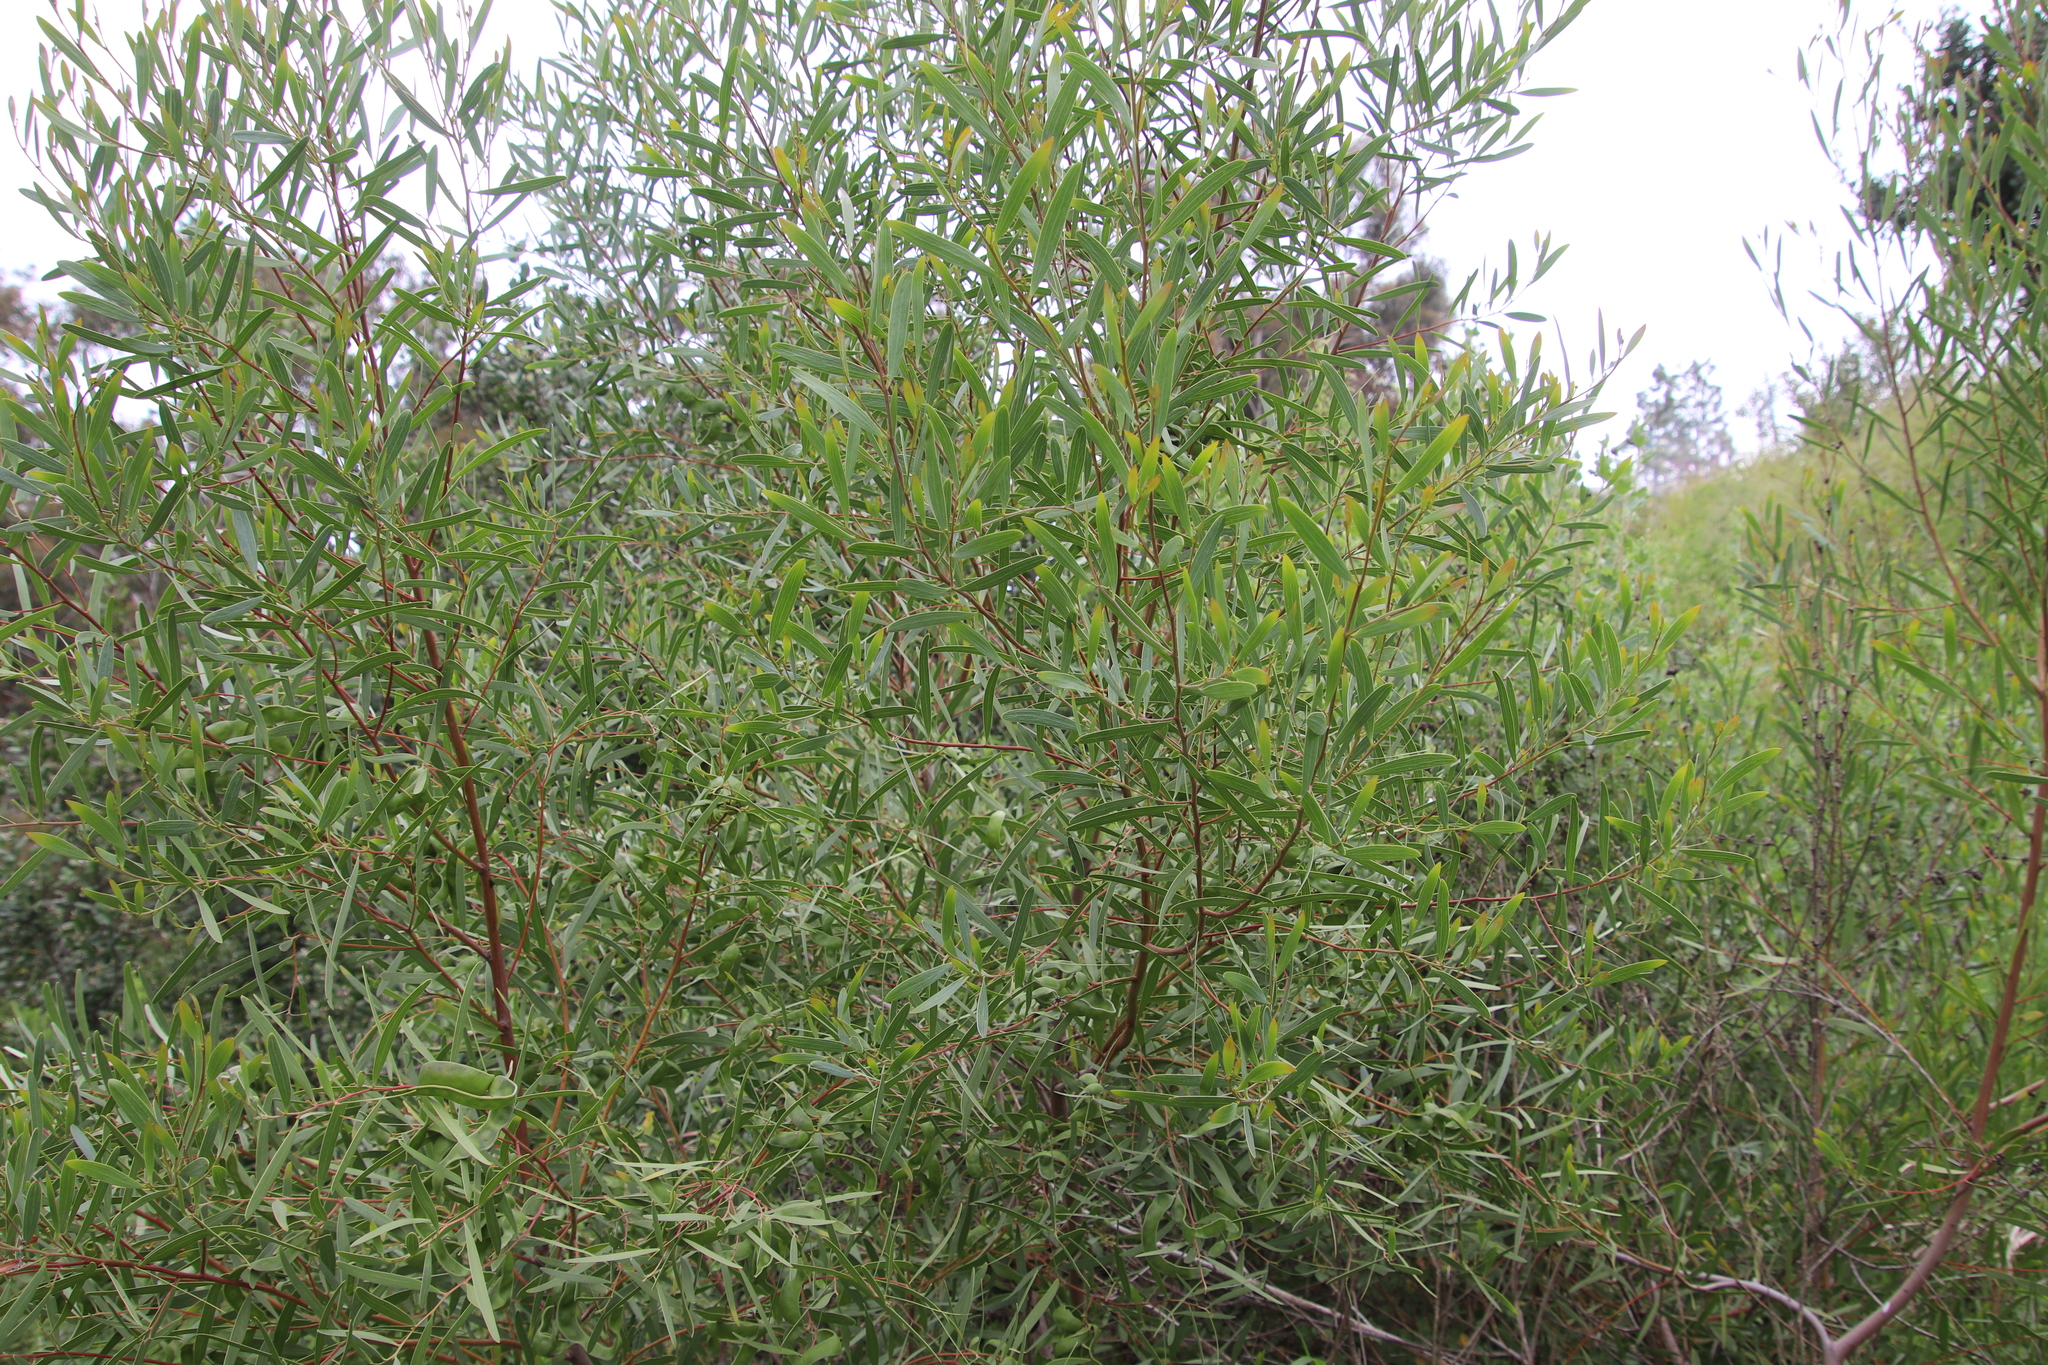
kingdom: Plantae
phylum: Tracheophyta
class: Magnoliopsida
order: Fabales
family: Fabaceae
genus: Acacia
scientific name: Acacia cyclops
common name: Coastal wattle
